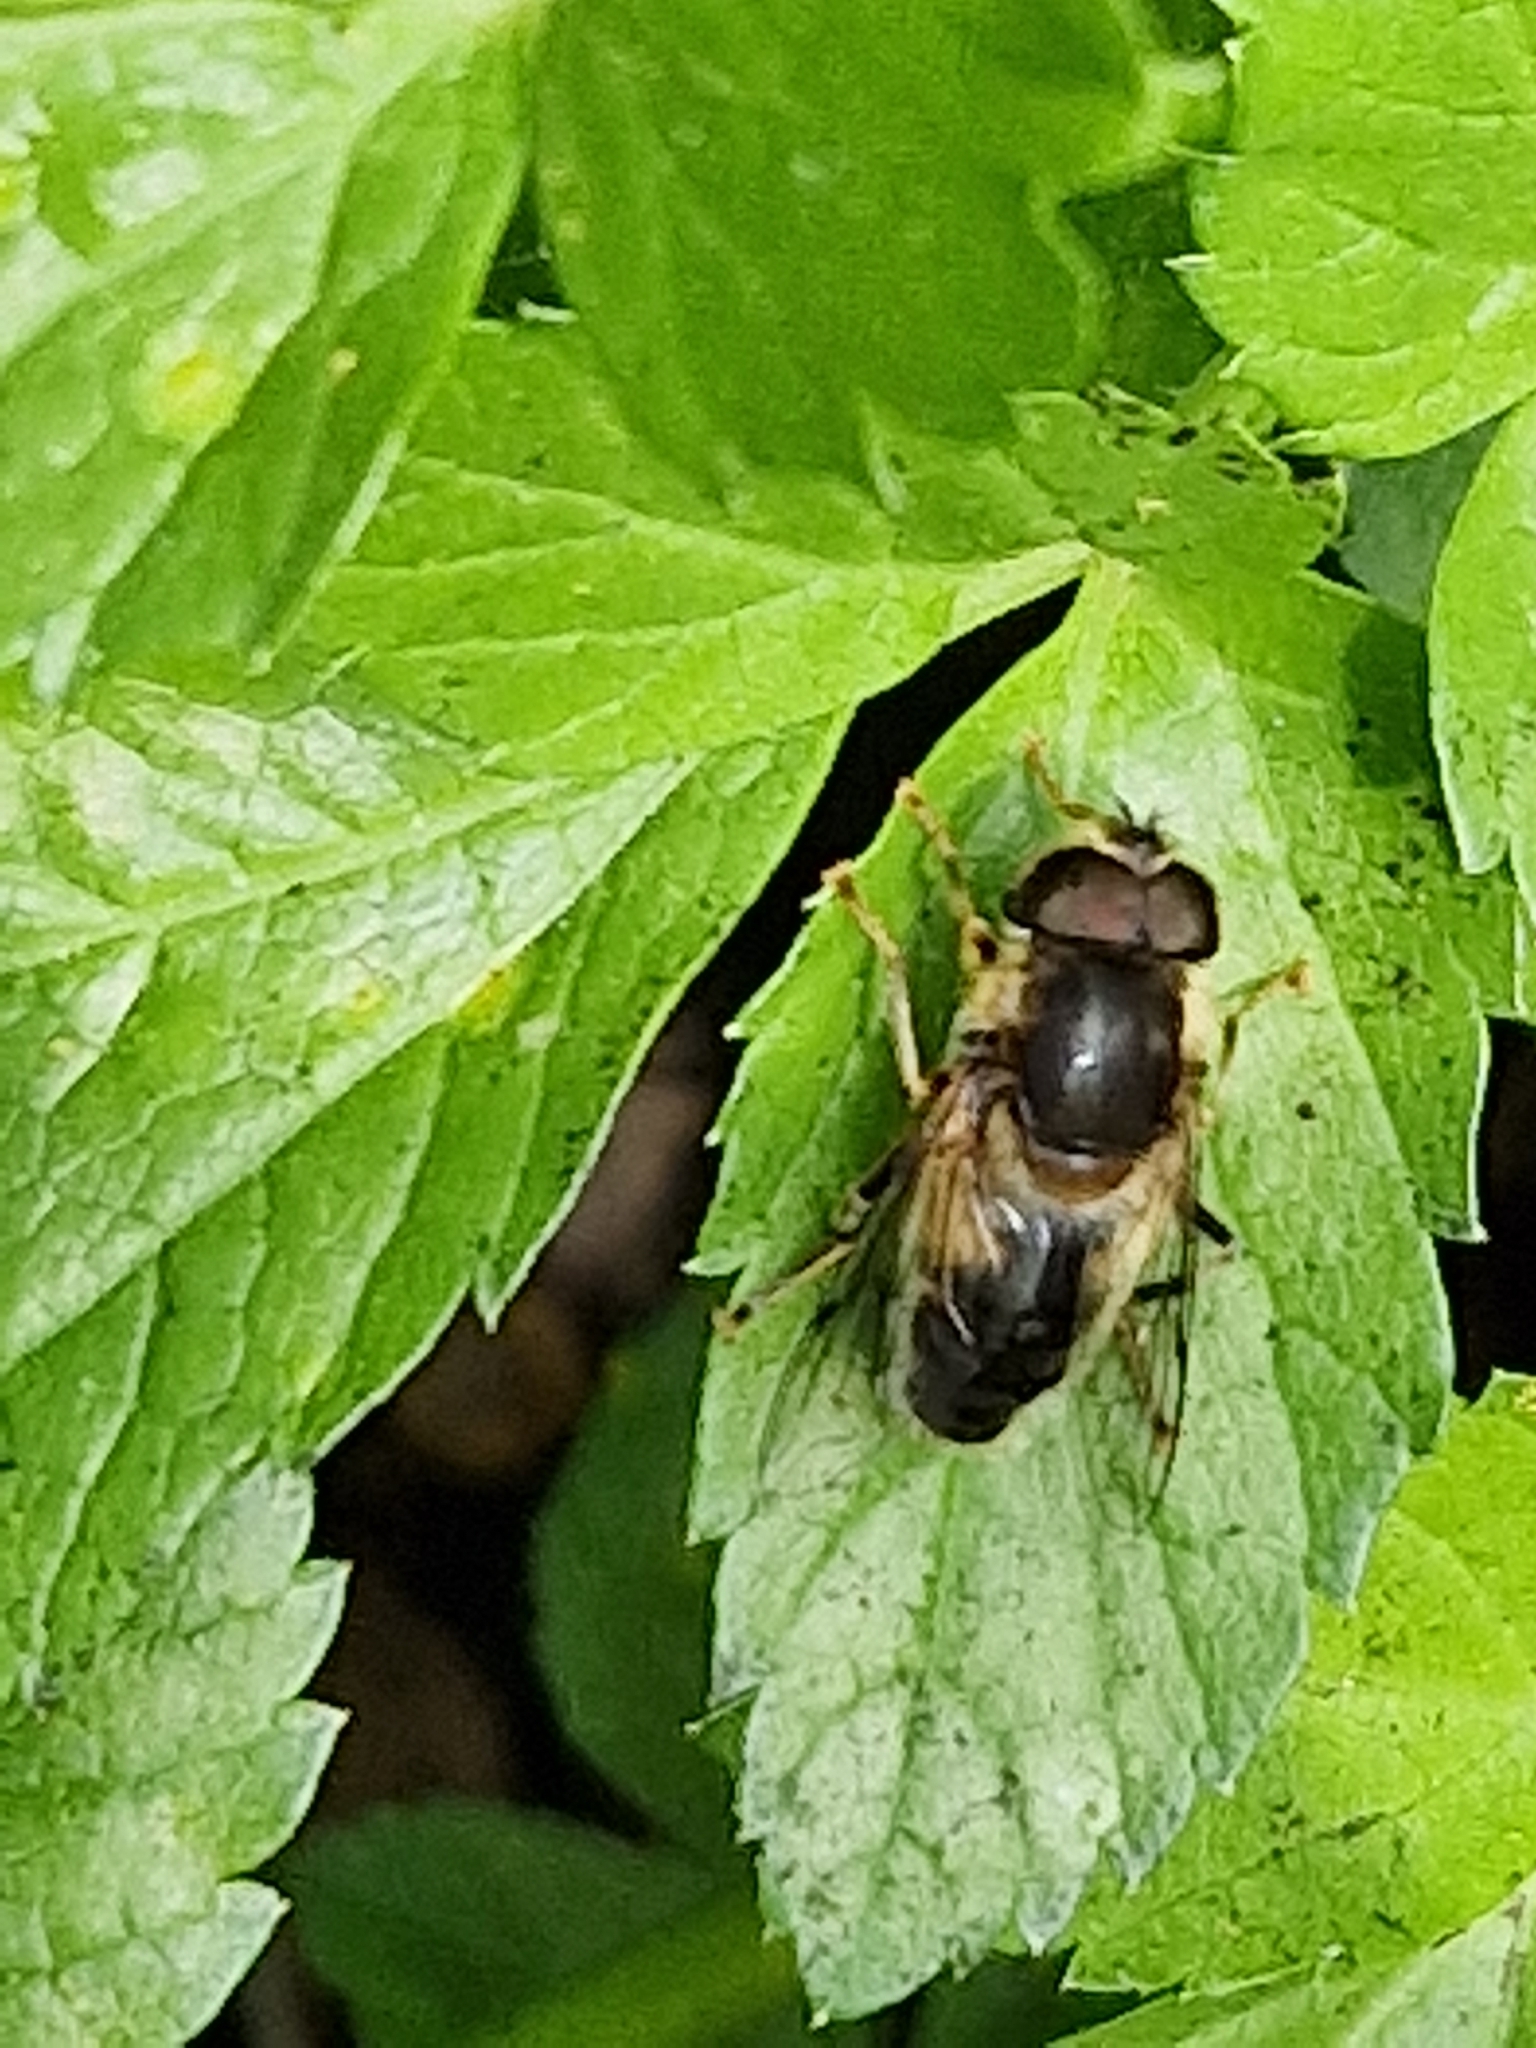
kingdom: Animalia
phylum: Arthropoda
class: Insecta
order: Diptera
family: Syrphidae
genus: Eristalis
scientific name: Eristalis pertinax
